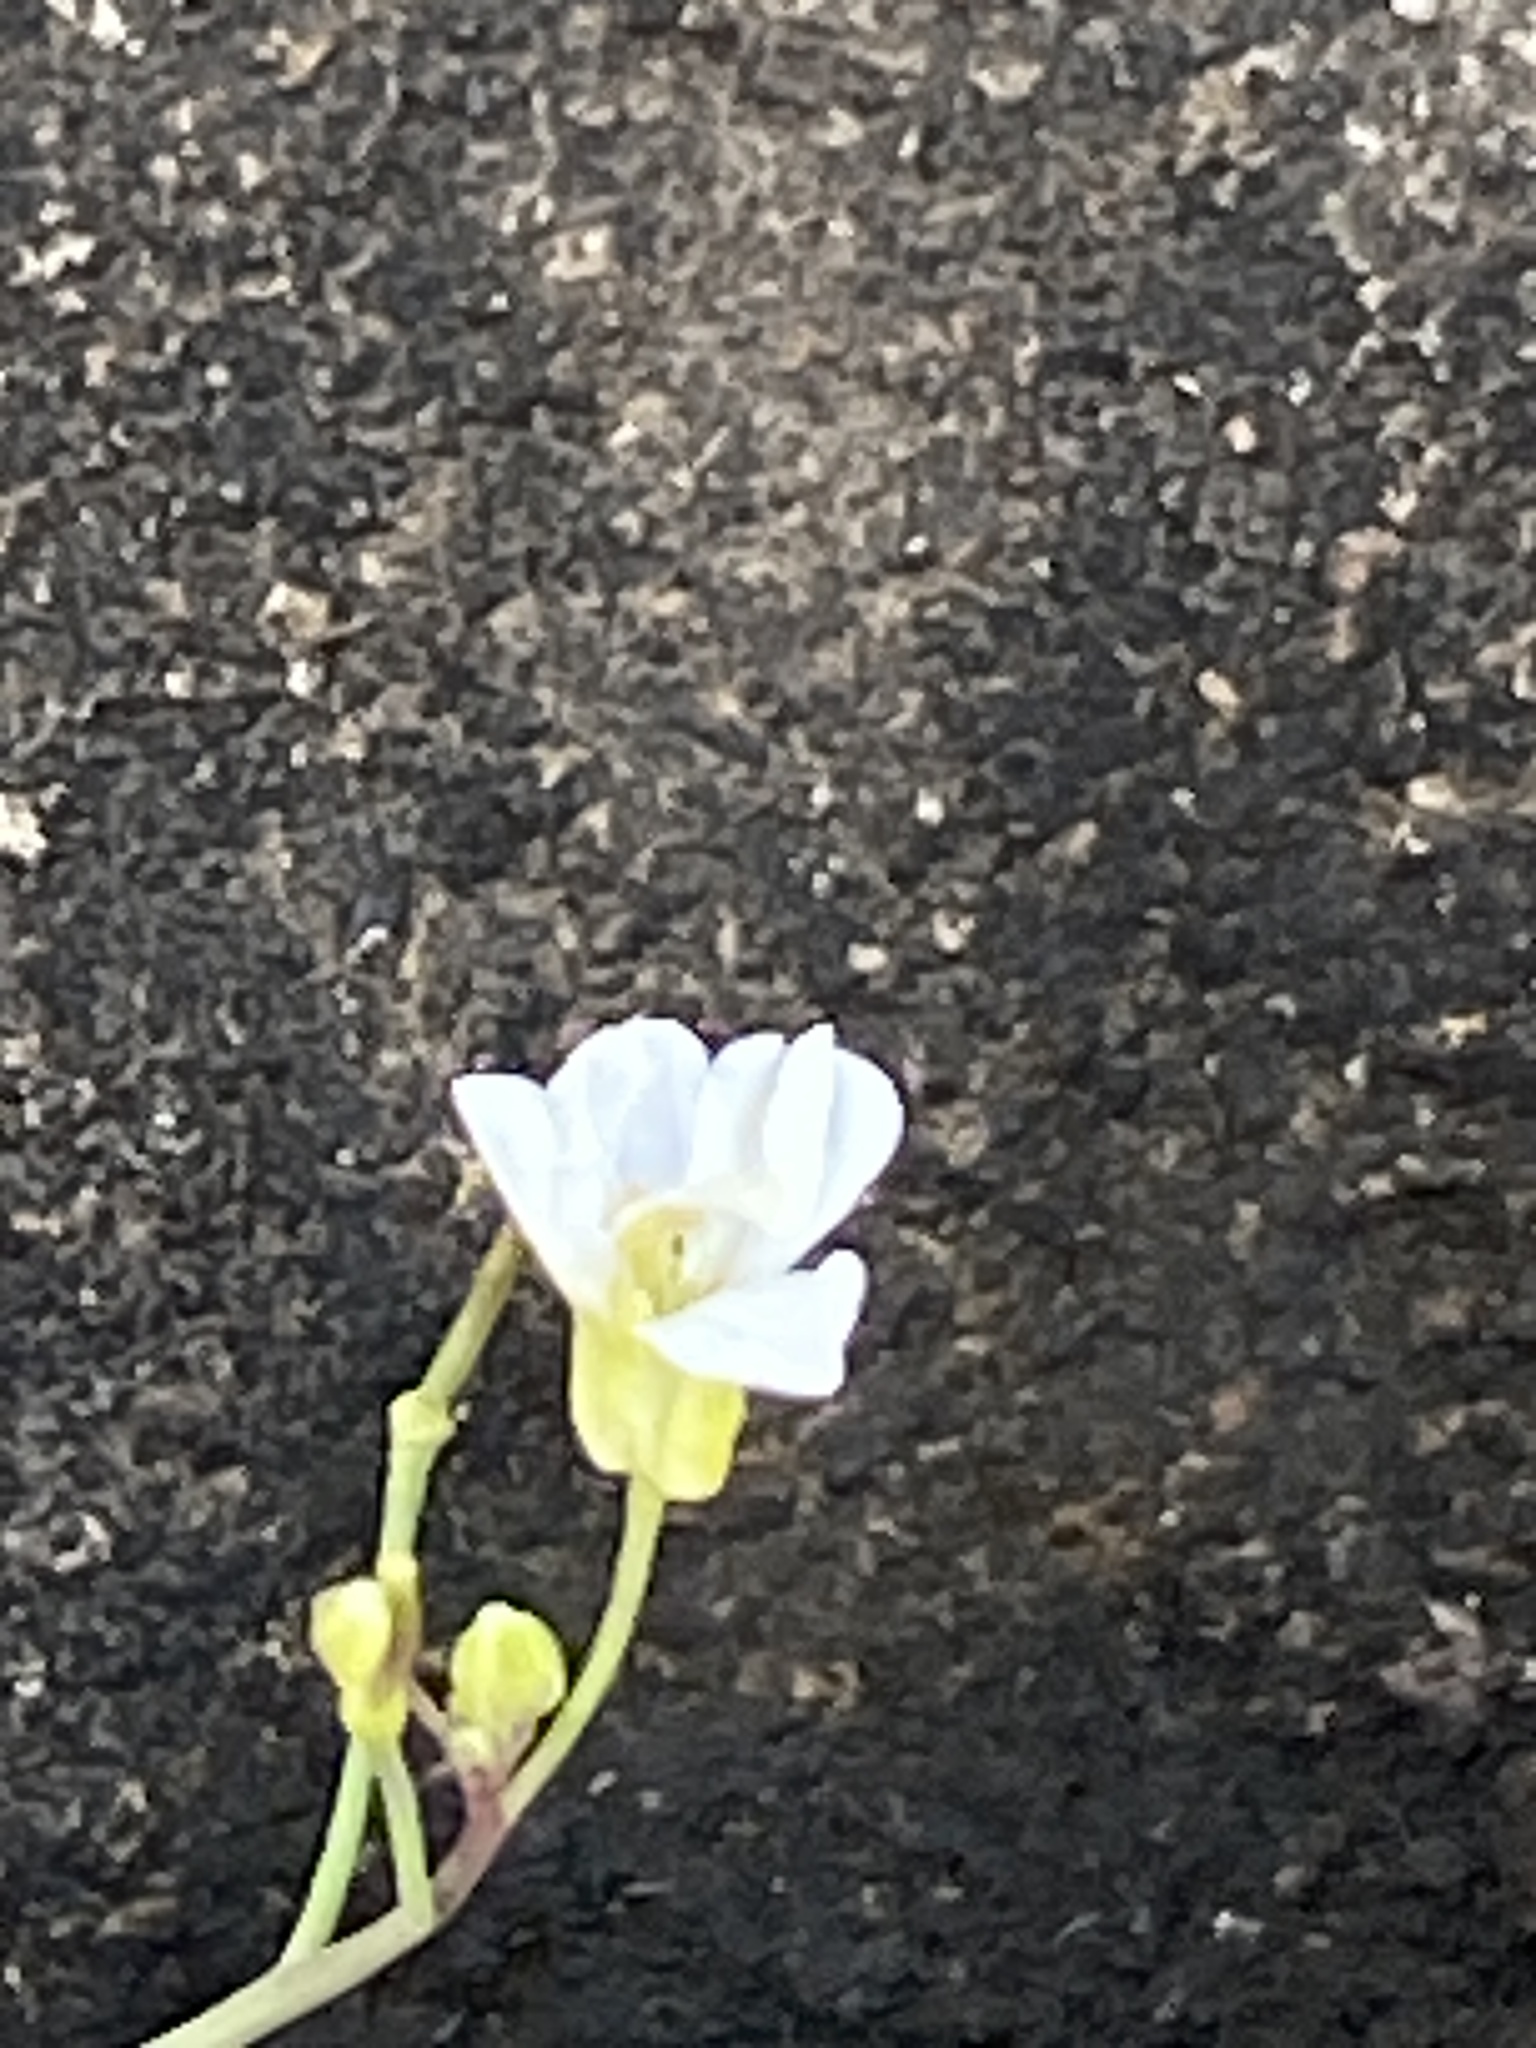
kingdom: Plantae
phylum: Tracheophyta
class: Magnoliopsida
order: Brassicales
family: Brassicaceae
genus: Arabidopsis
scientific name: Arabidopsis lyrata
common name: Lyrate rockcress
